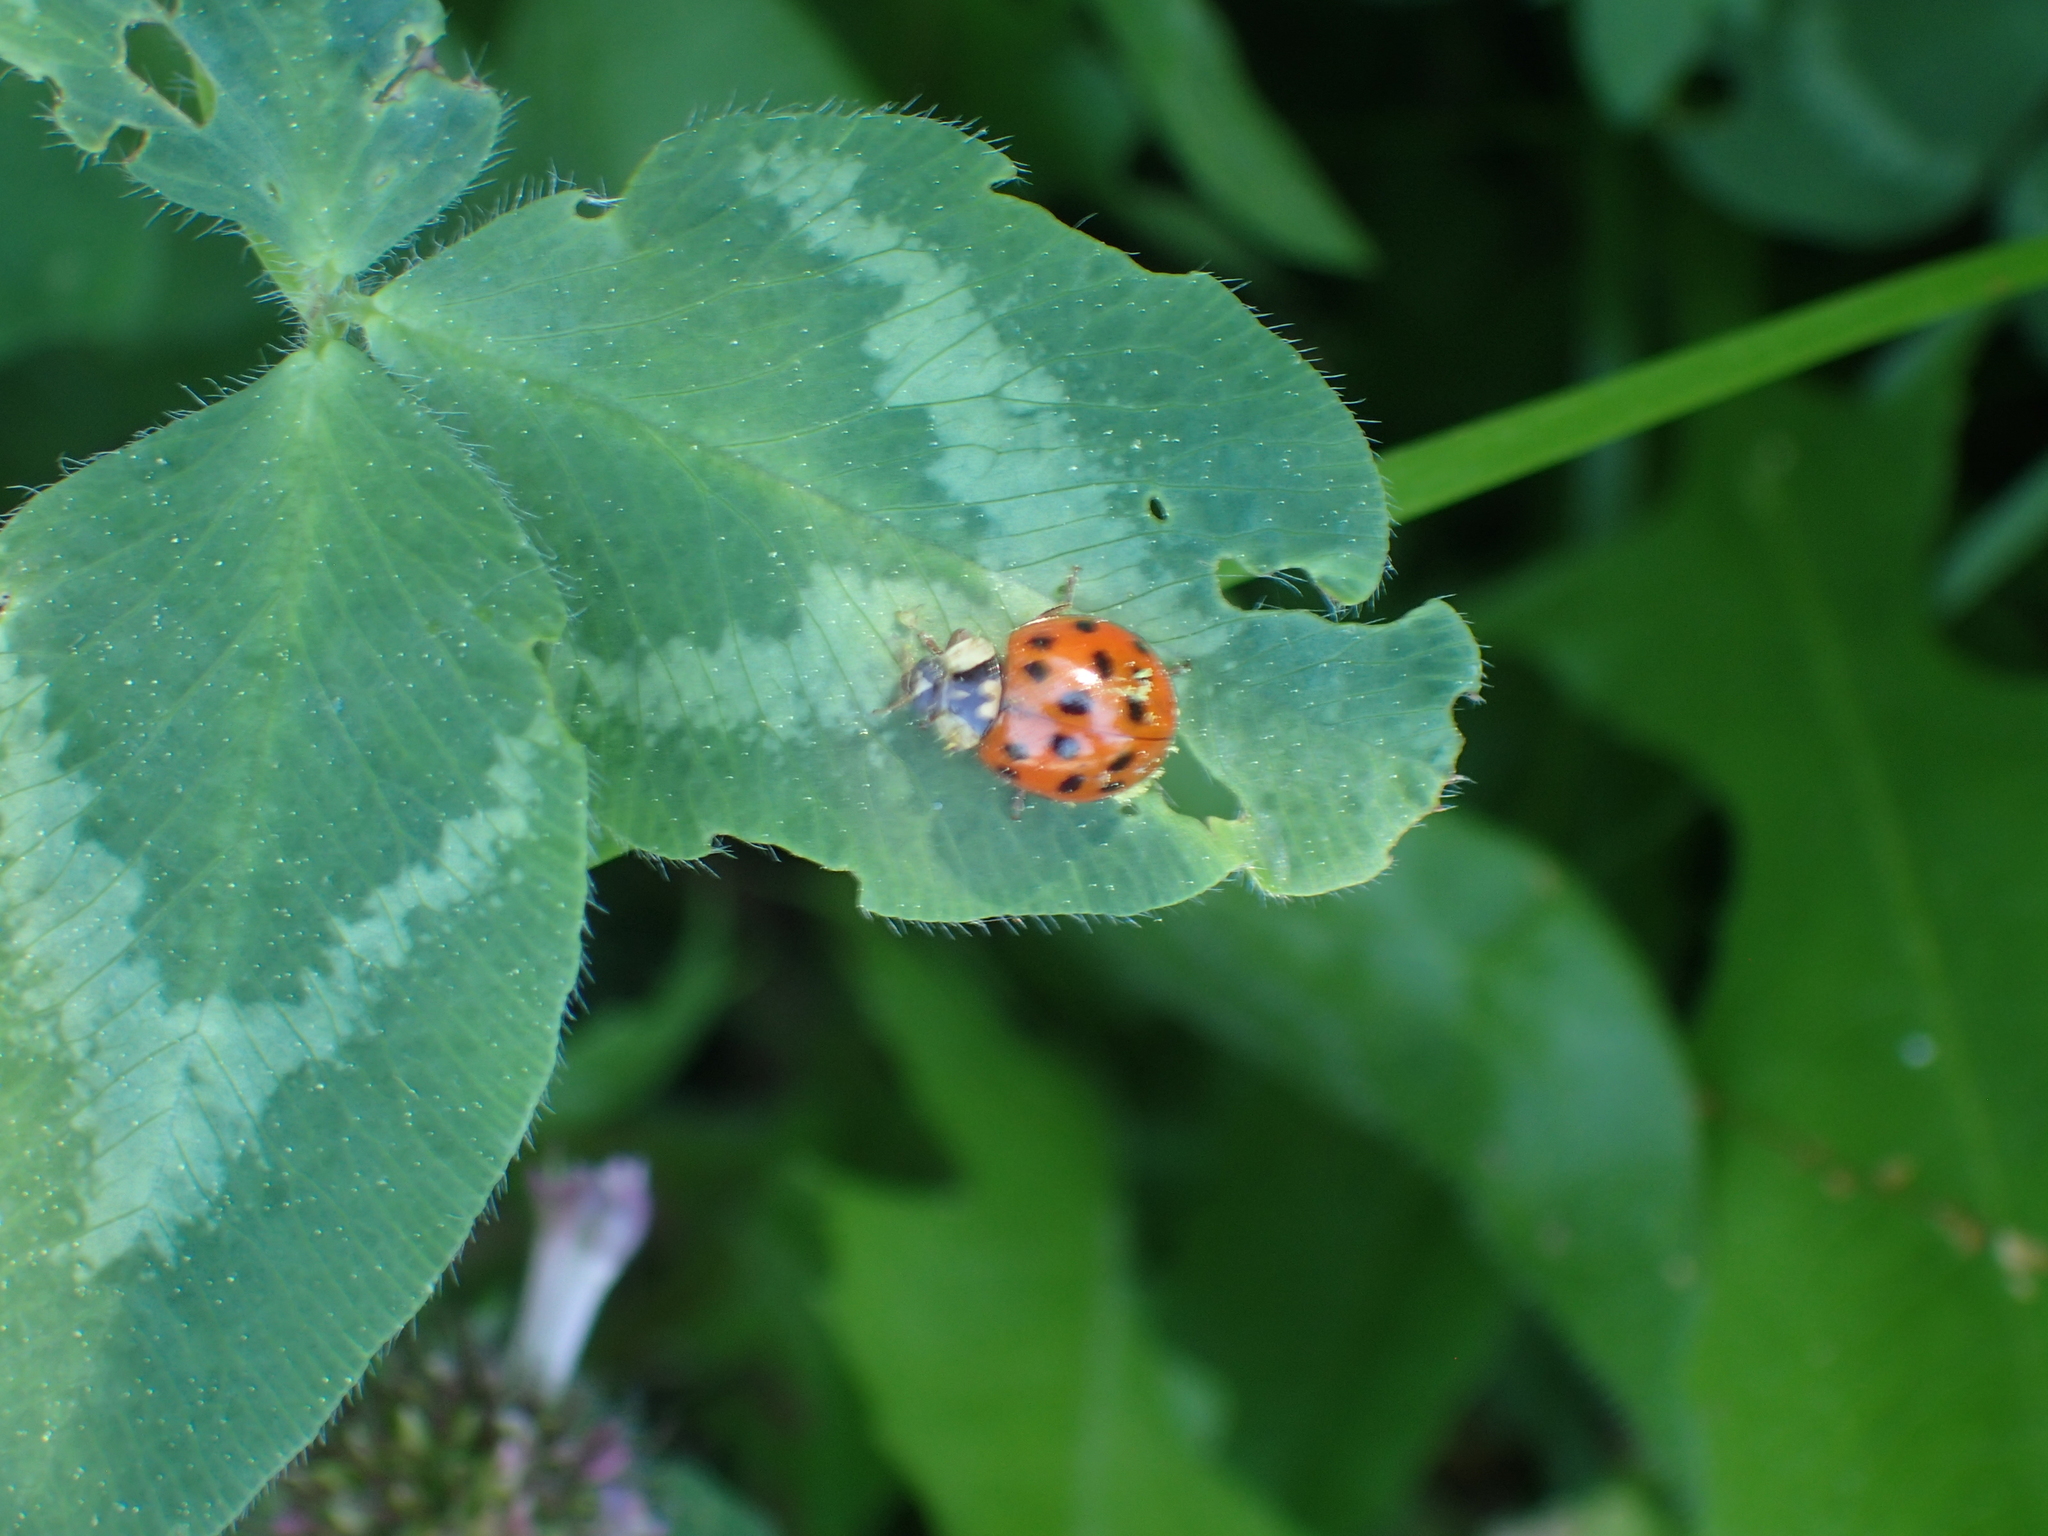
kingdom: Animalia
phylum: Arthropoda
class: Insecta
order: Coleoptera
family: Coccinellidae
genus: Harmonia
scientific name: Harmonia axyridis
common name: Harlequin ladybird
